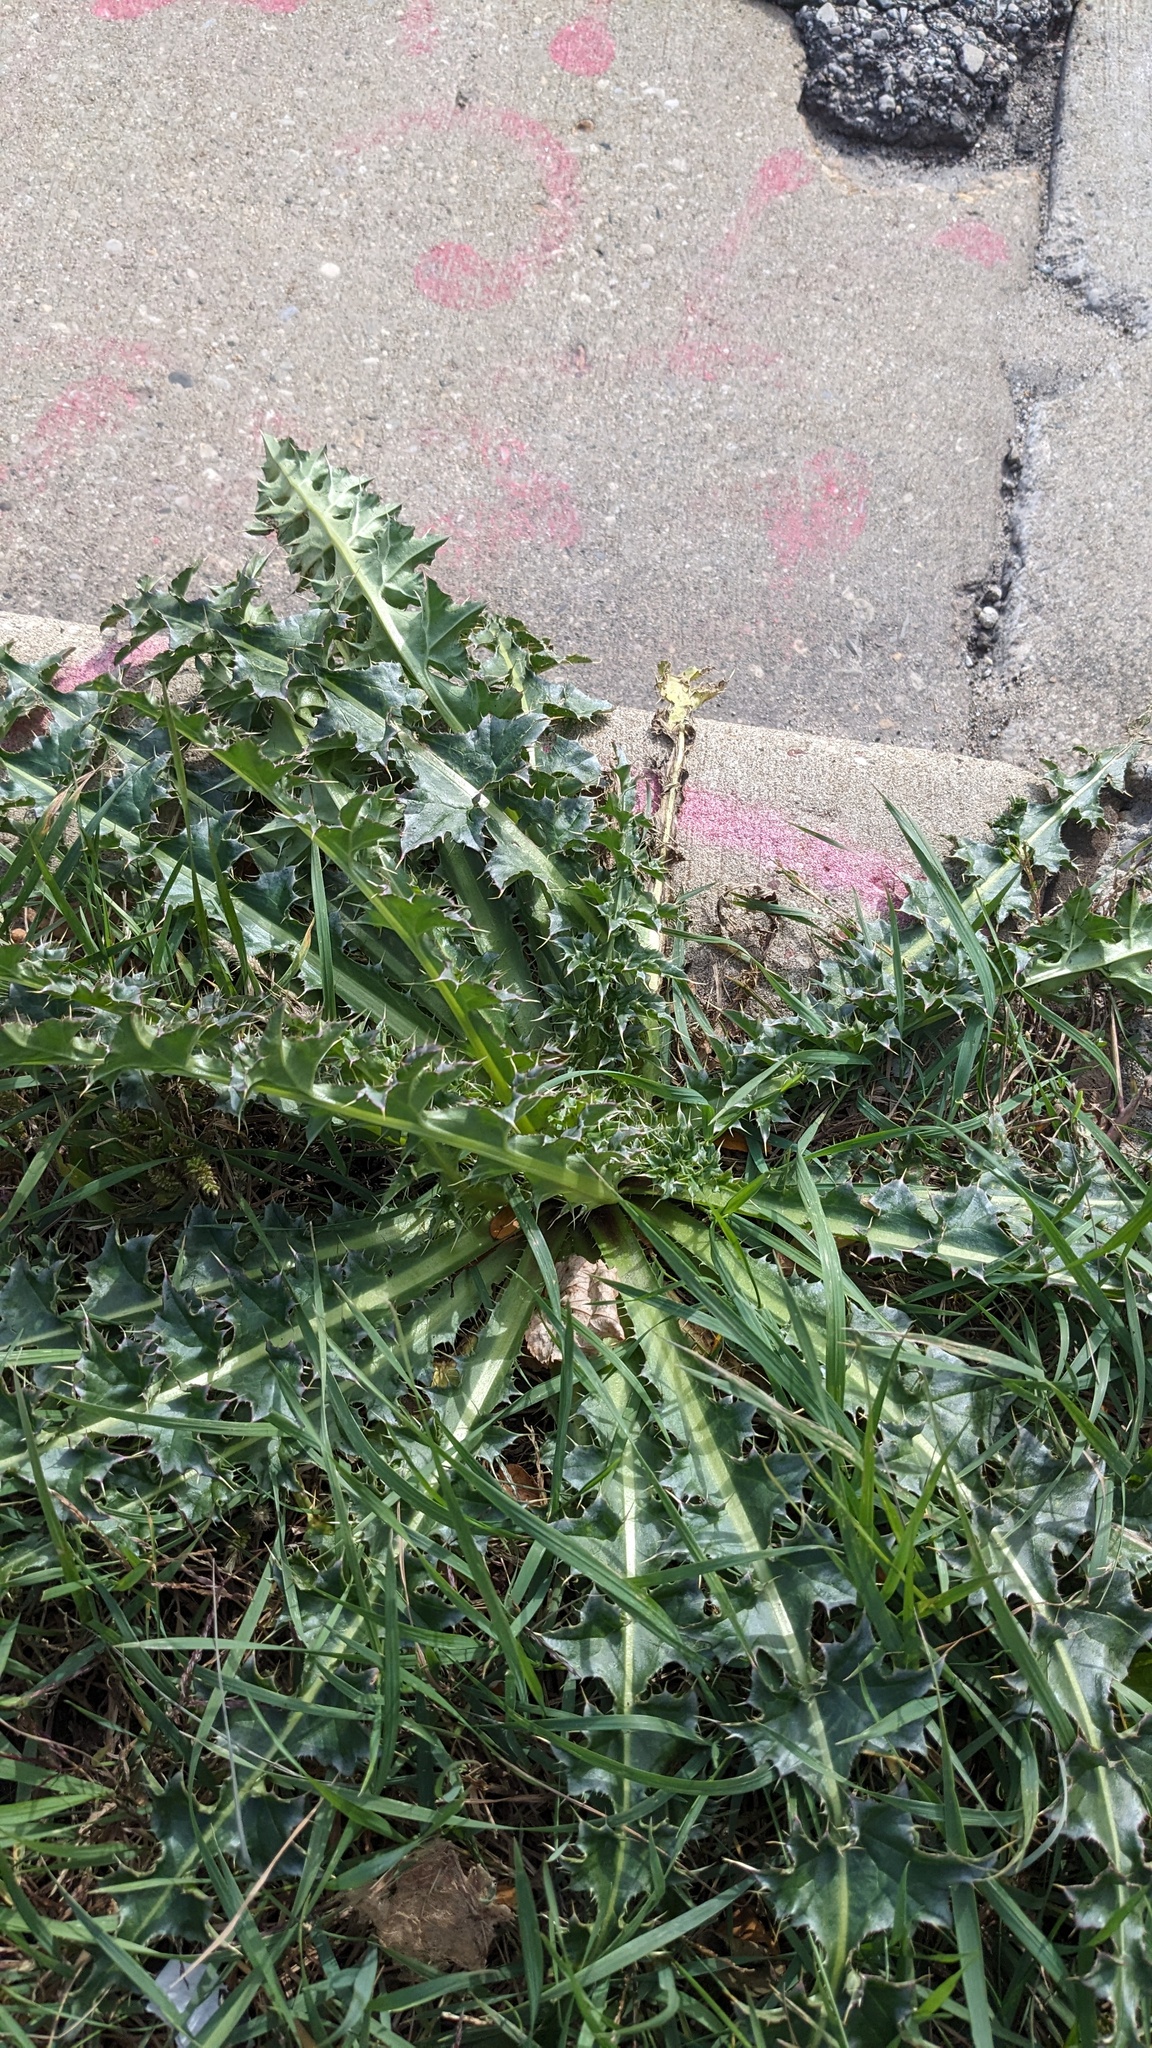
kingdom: Plantae
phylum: Tracheophyta
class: Magnoliopsida
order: Asterales
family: Asteraceae
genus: Carduus
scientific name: Carduus nutans
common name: Musk thistle
